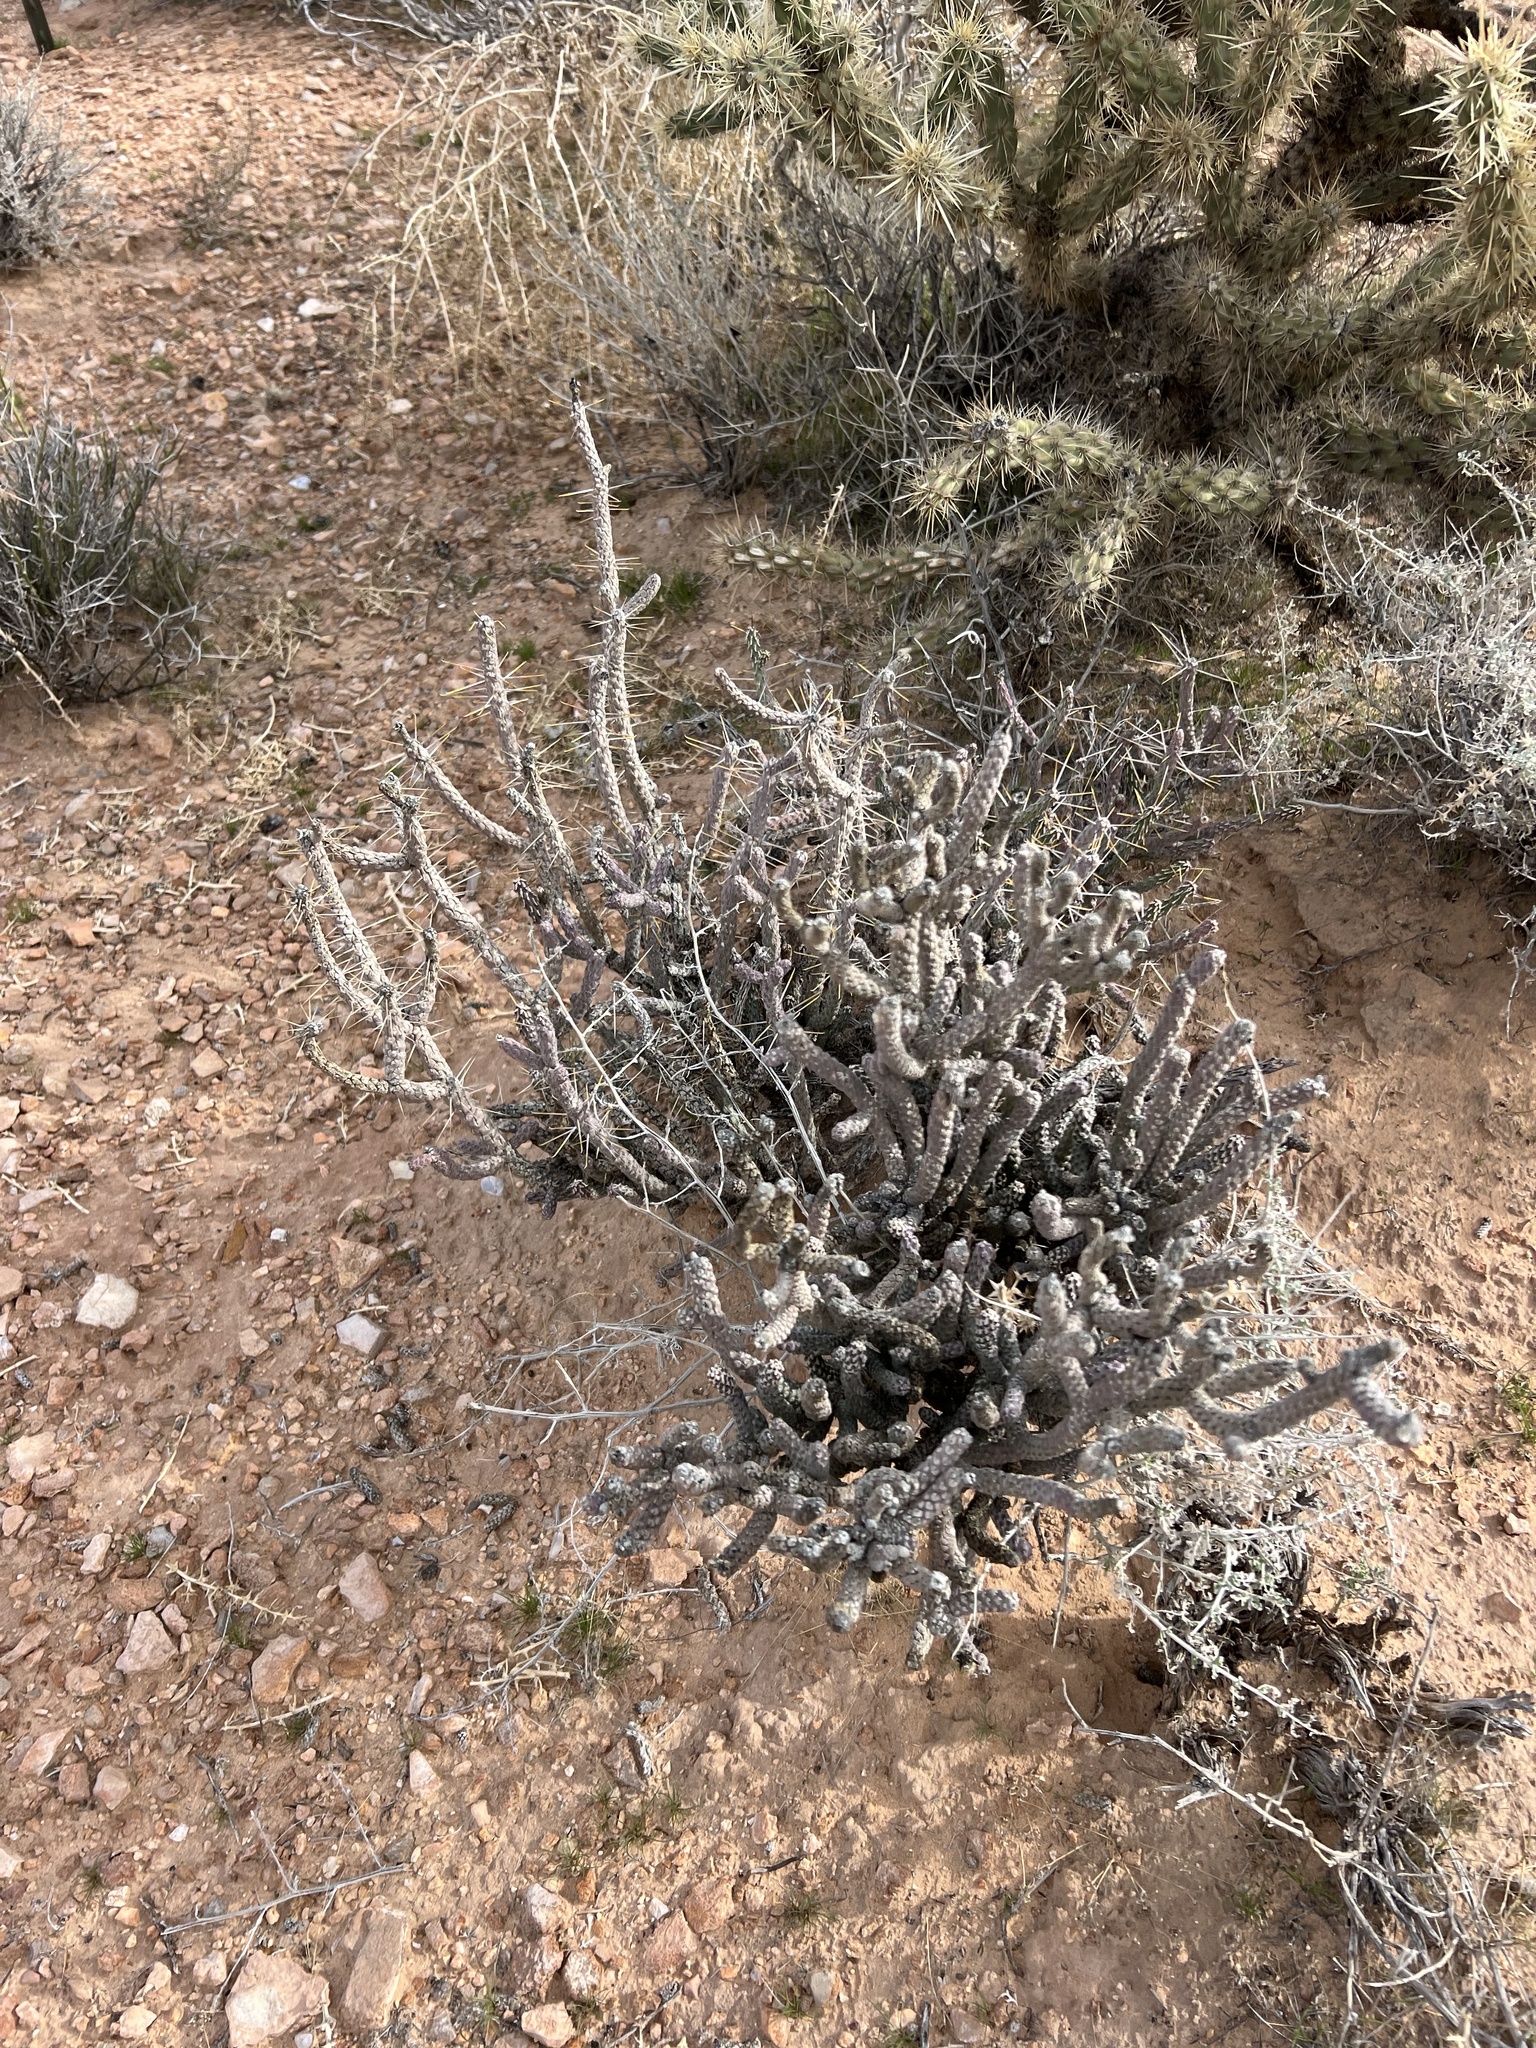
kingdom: Plantae
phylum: Tracheophyta
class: Magnoliopsida
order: Caryophyllales
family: Cactaceae
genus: Cylindropuntia
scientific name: Cylindropuntia ramosissima
